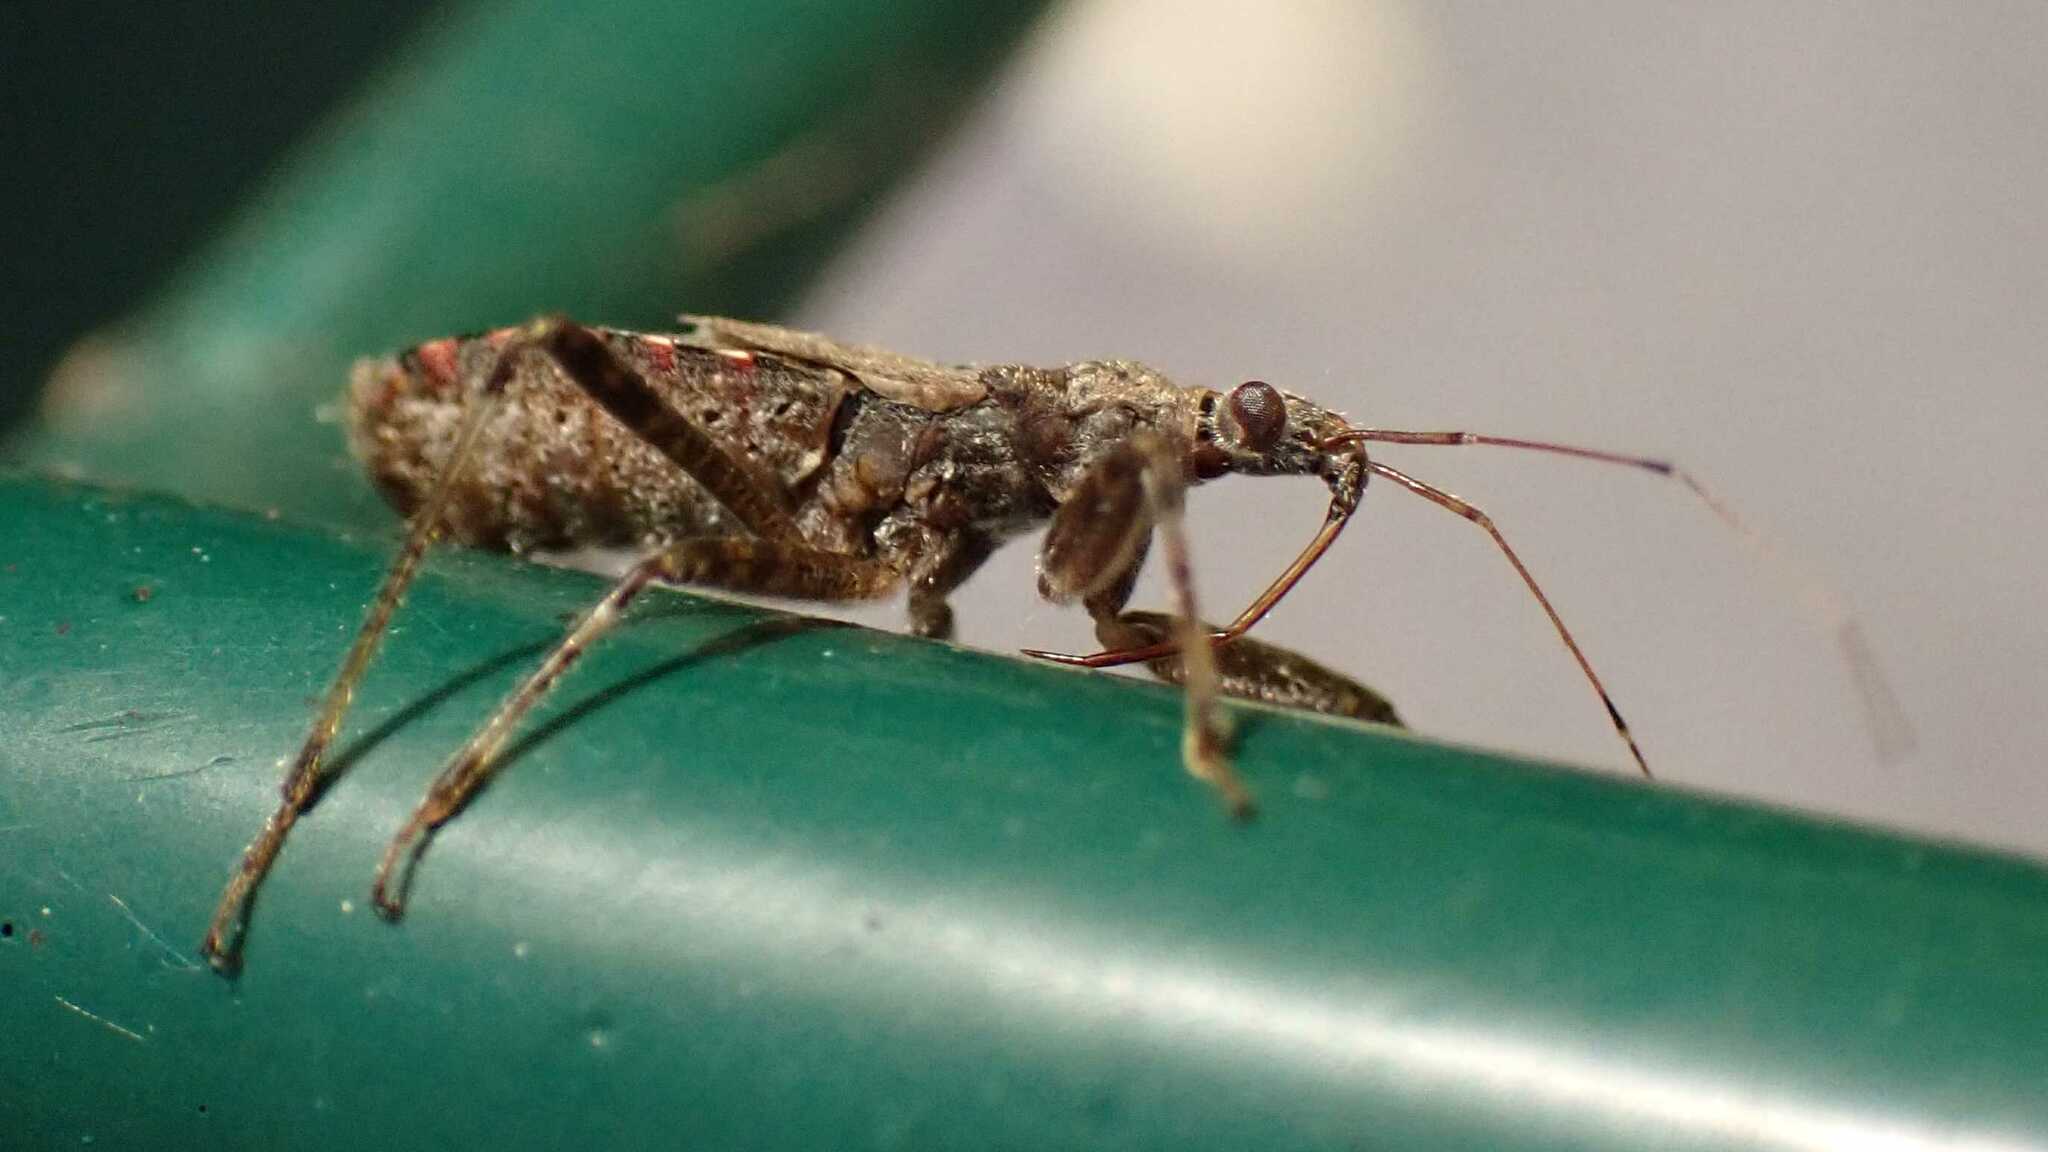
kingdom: Animalia
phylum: Arthropoda
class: Insecta
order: Hemiptera
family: Nabidae
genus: Himacerus
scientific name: Himacerus apterus
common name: Tree damsel bug
